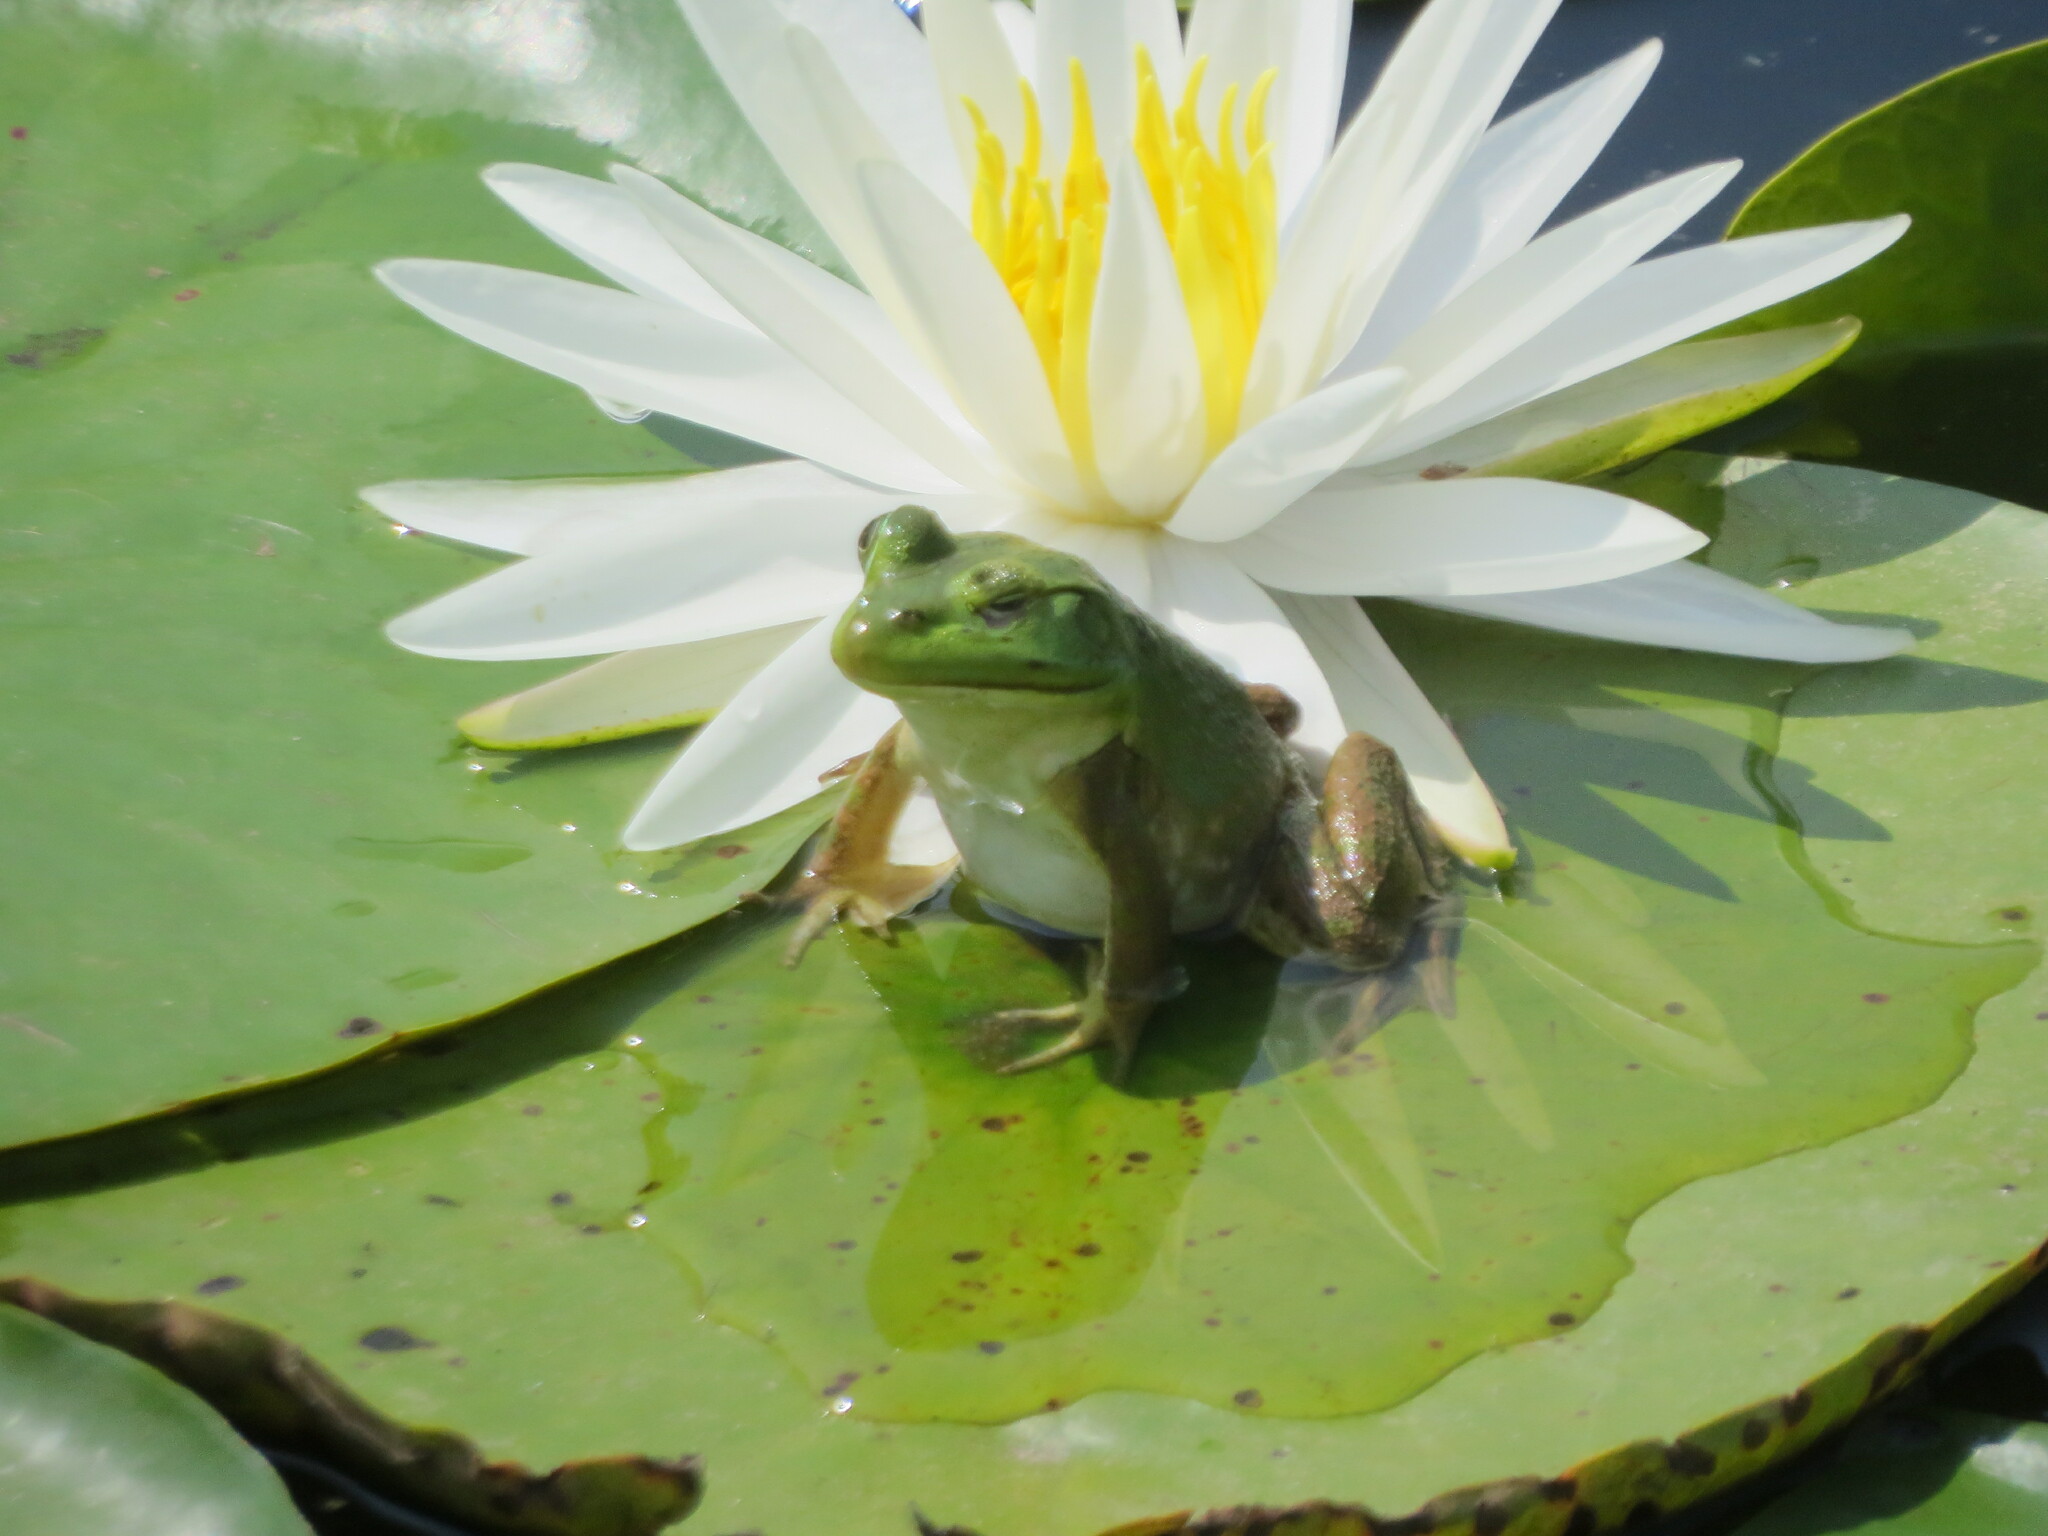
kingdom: Animalia
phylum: Chordata
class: Amphibia
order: Anura
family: Ranidae
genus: Lithobates
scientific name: Lithobates catesbeianus
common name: American bullfrog
